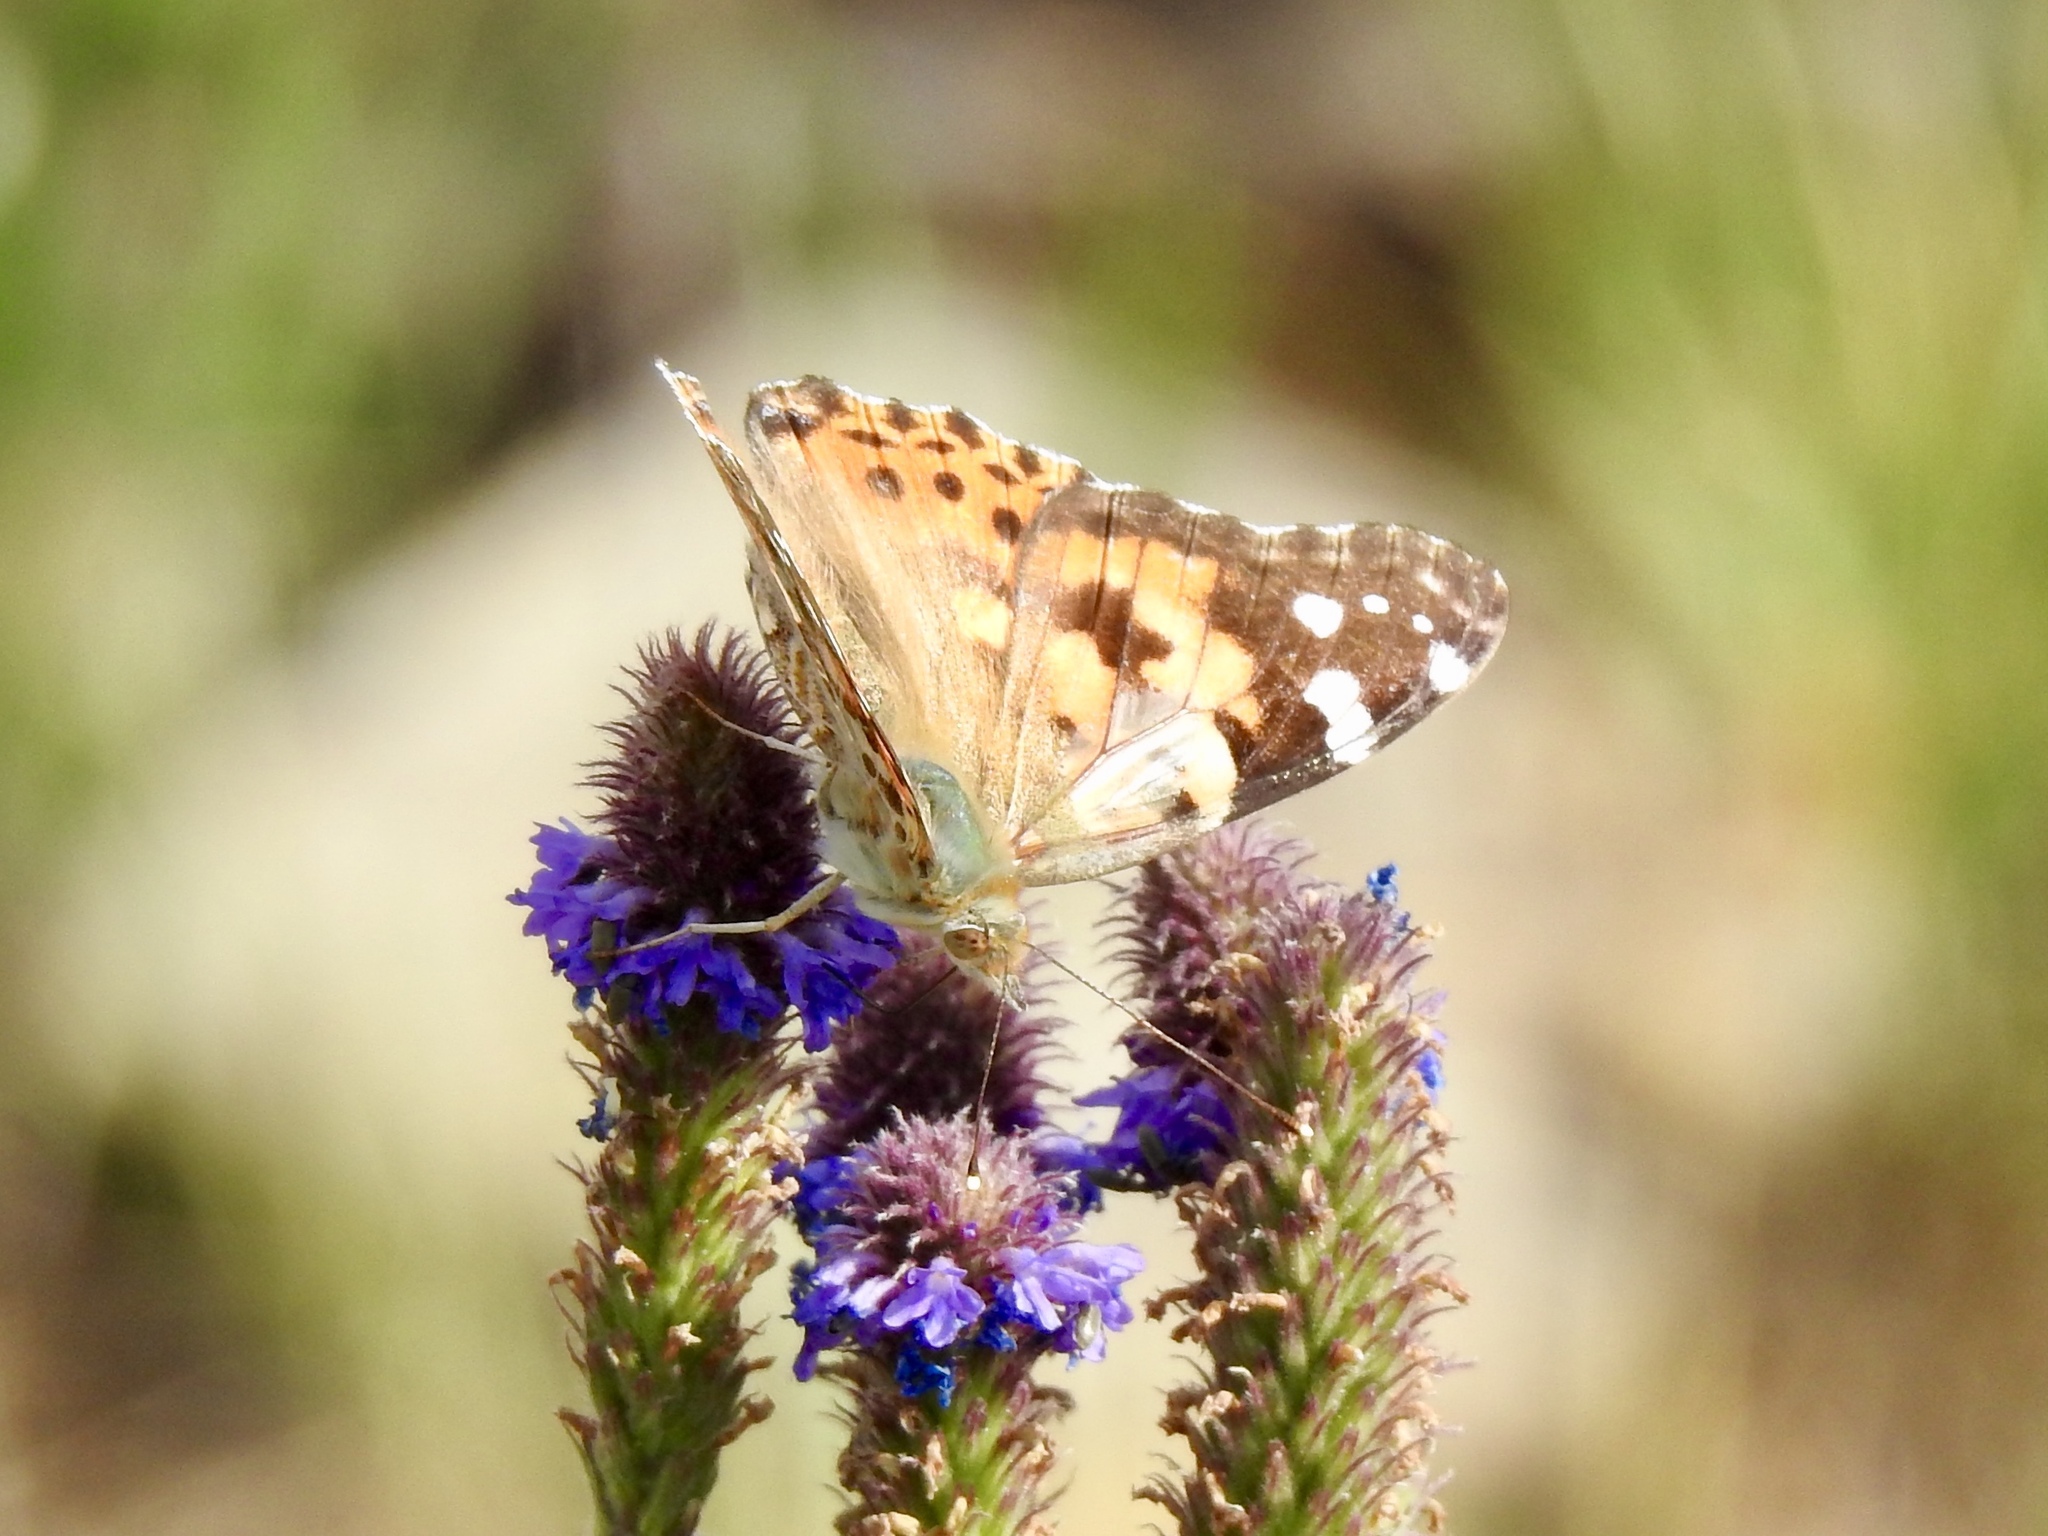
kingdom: Animalia
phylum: Arthropoda
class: Insecta
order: Lepidoptera
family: Nymphalidae
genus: Vanessa
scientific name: Vanessa cardui
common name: Painted lady
